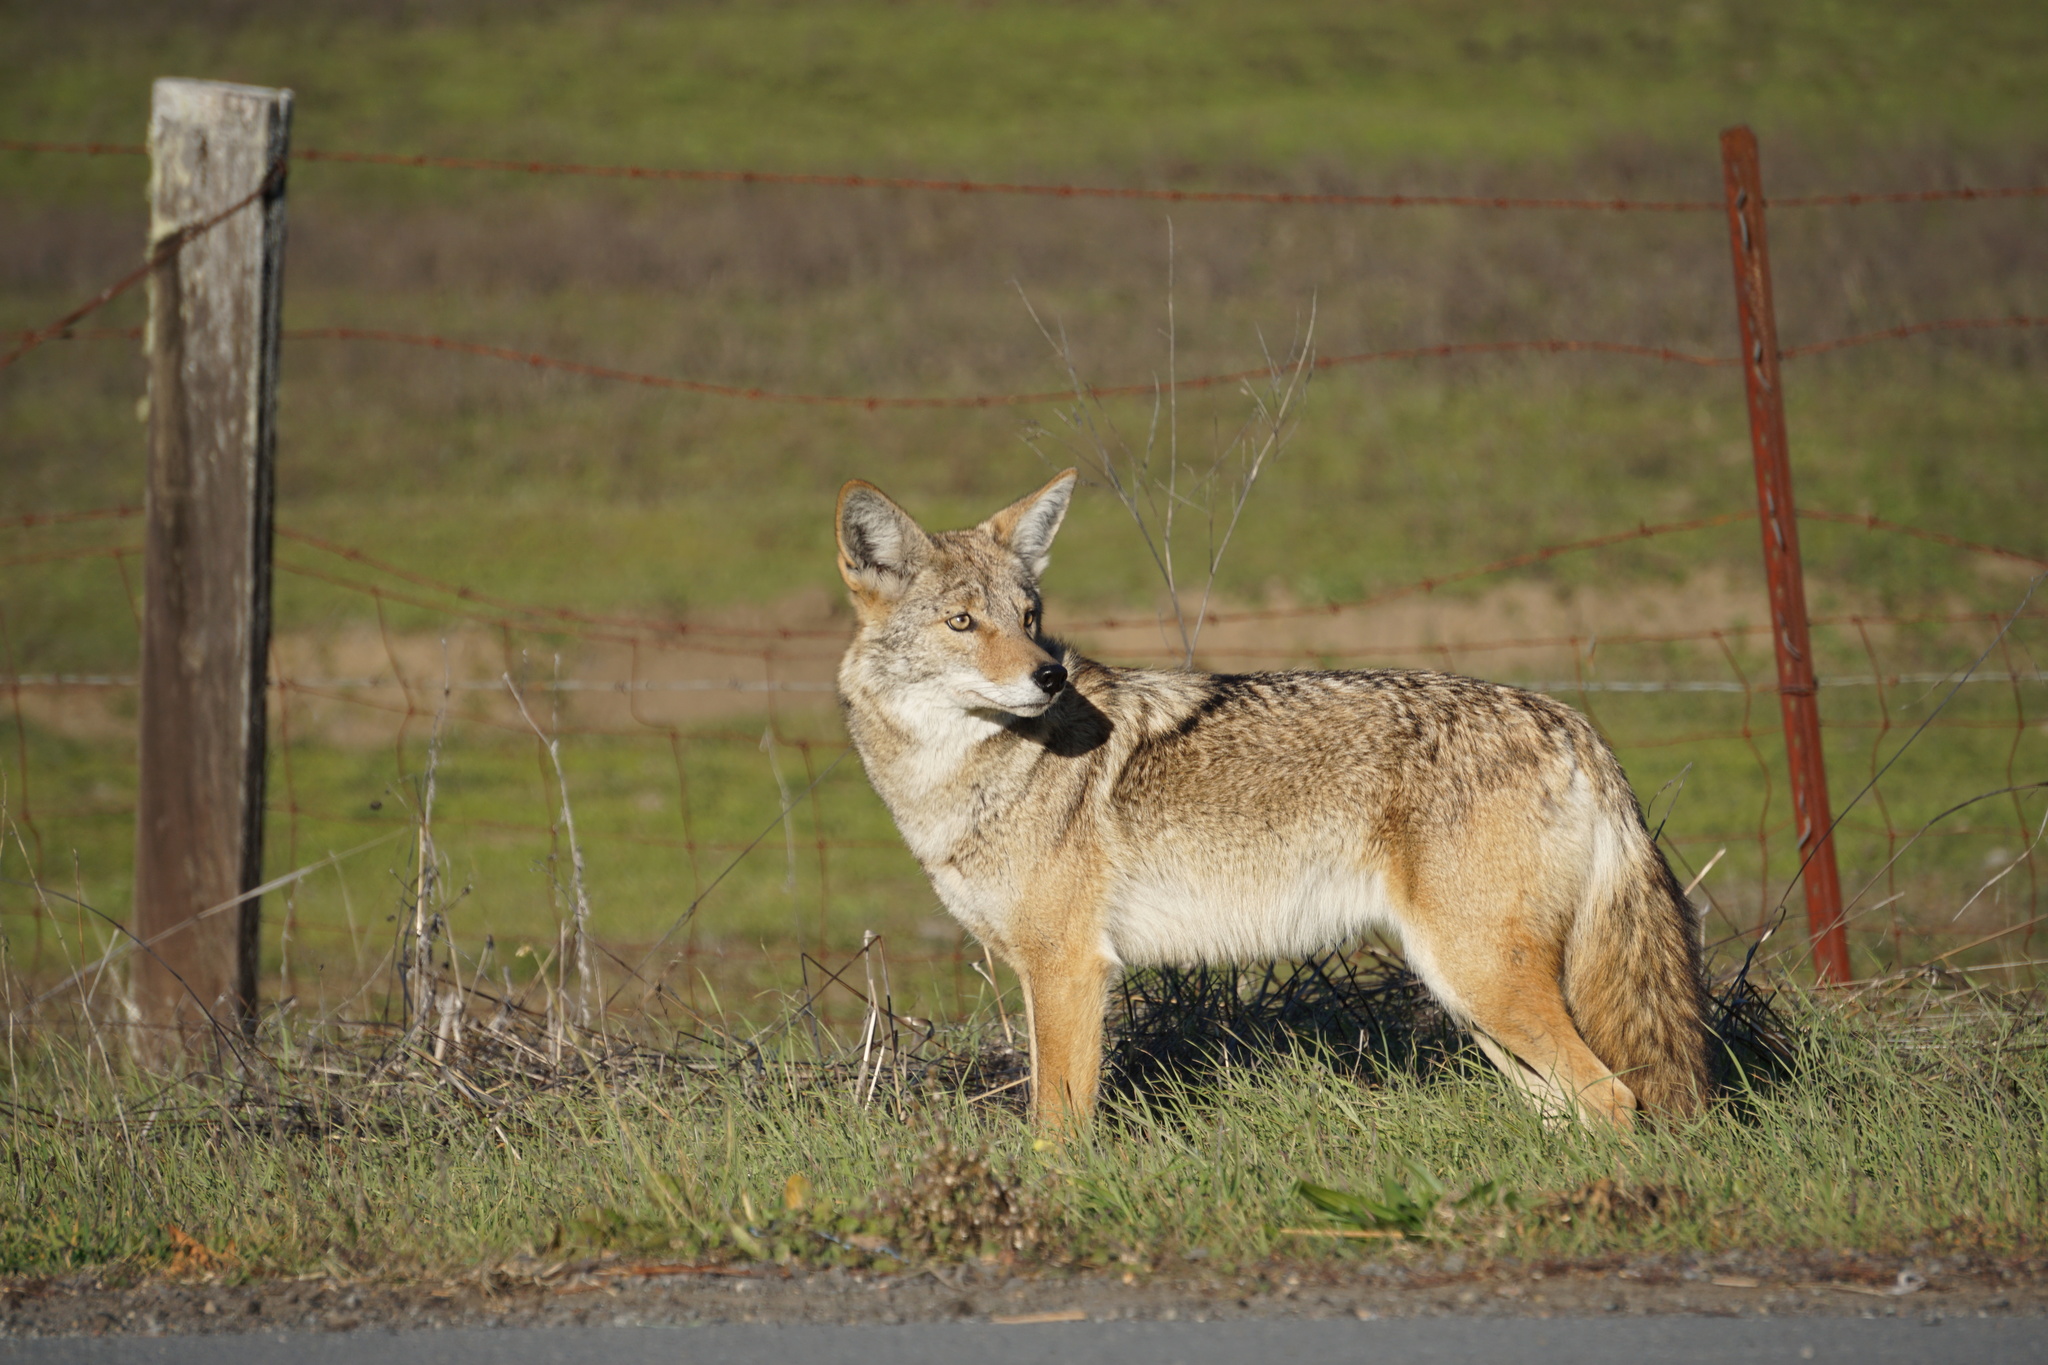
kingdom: Animalia
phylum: Chordata
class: Mammalia
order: Carnivora
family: Canidae
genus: Canis
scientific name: Canis latrans
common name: Coyote
